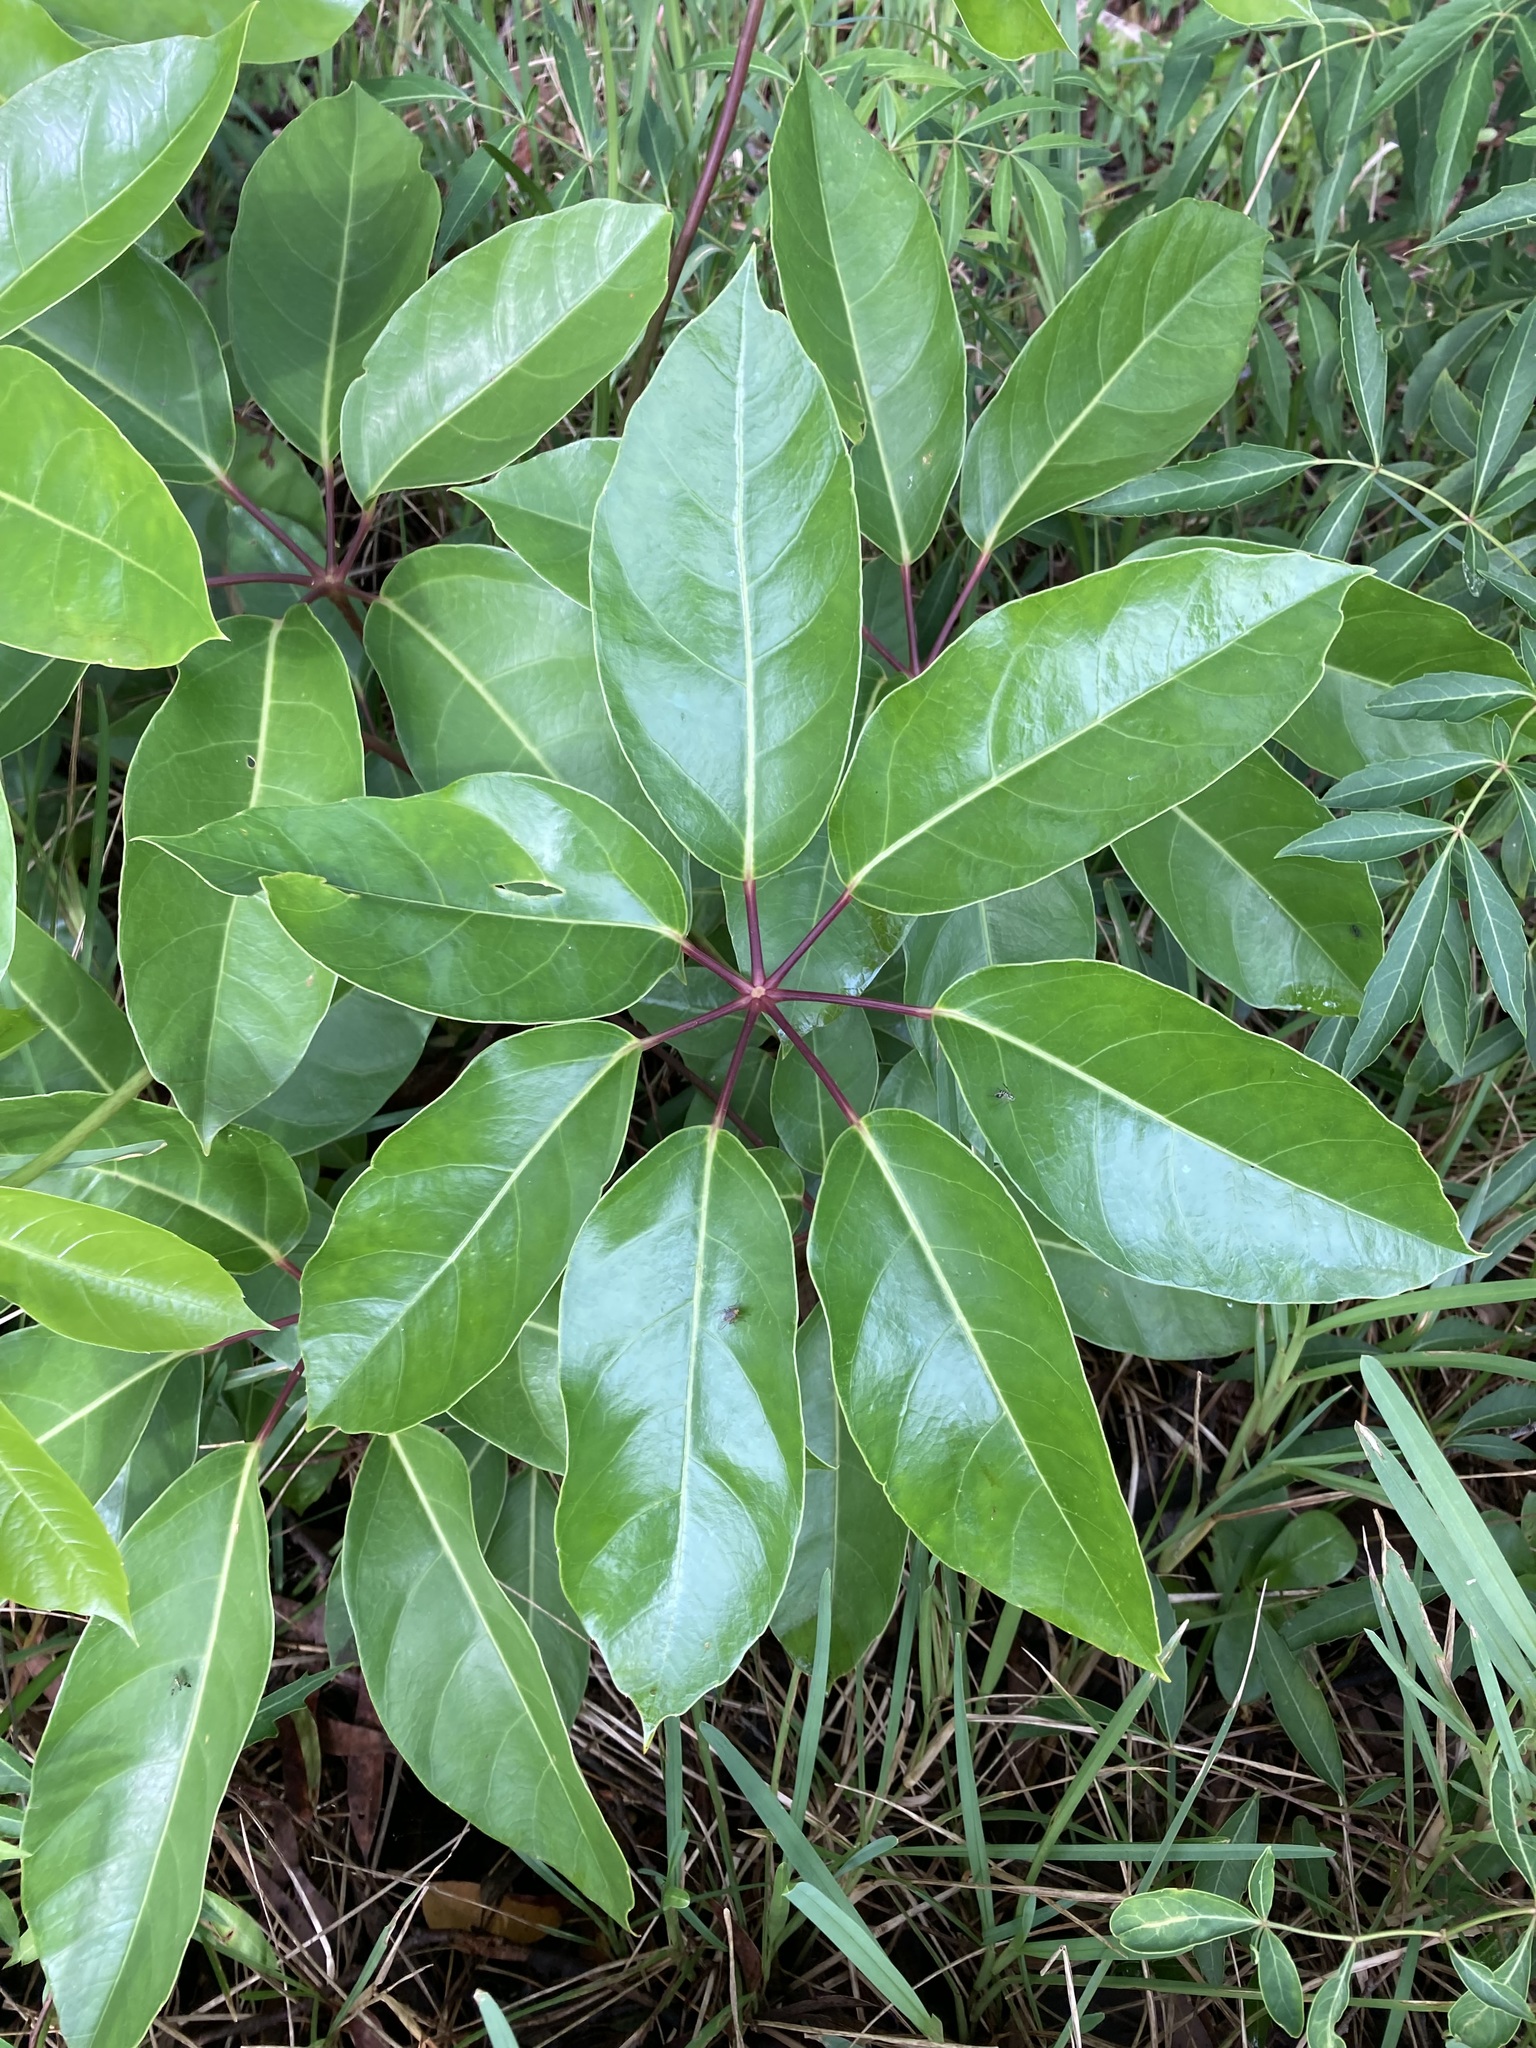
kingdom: Plantae
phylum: Tracheophyta
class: Magnoliopsida
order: Apiales
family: Araliaceae
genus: Heptapleurum
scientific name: Heptapleurum actinophyllum
